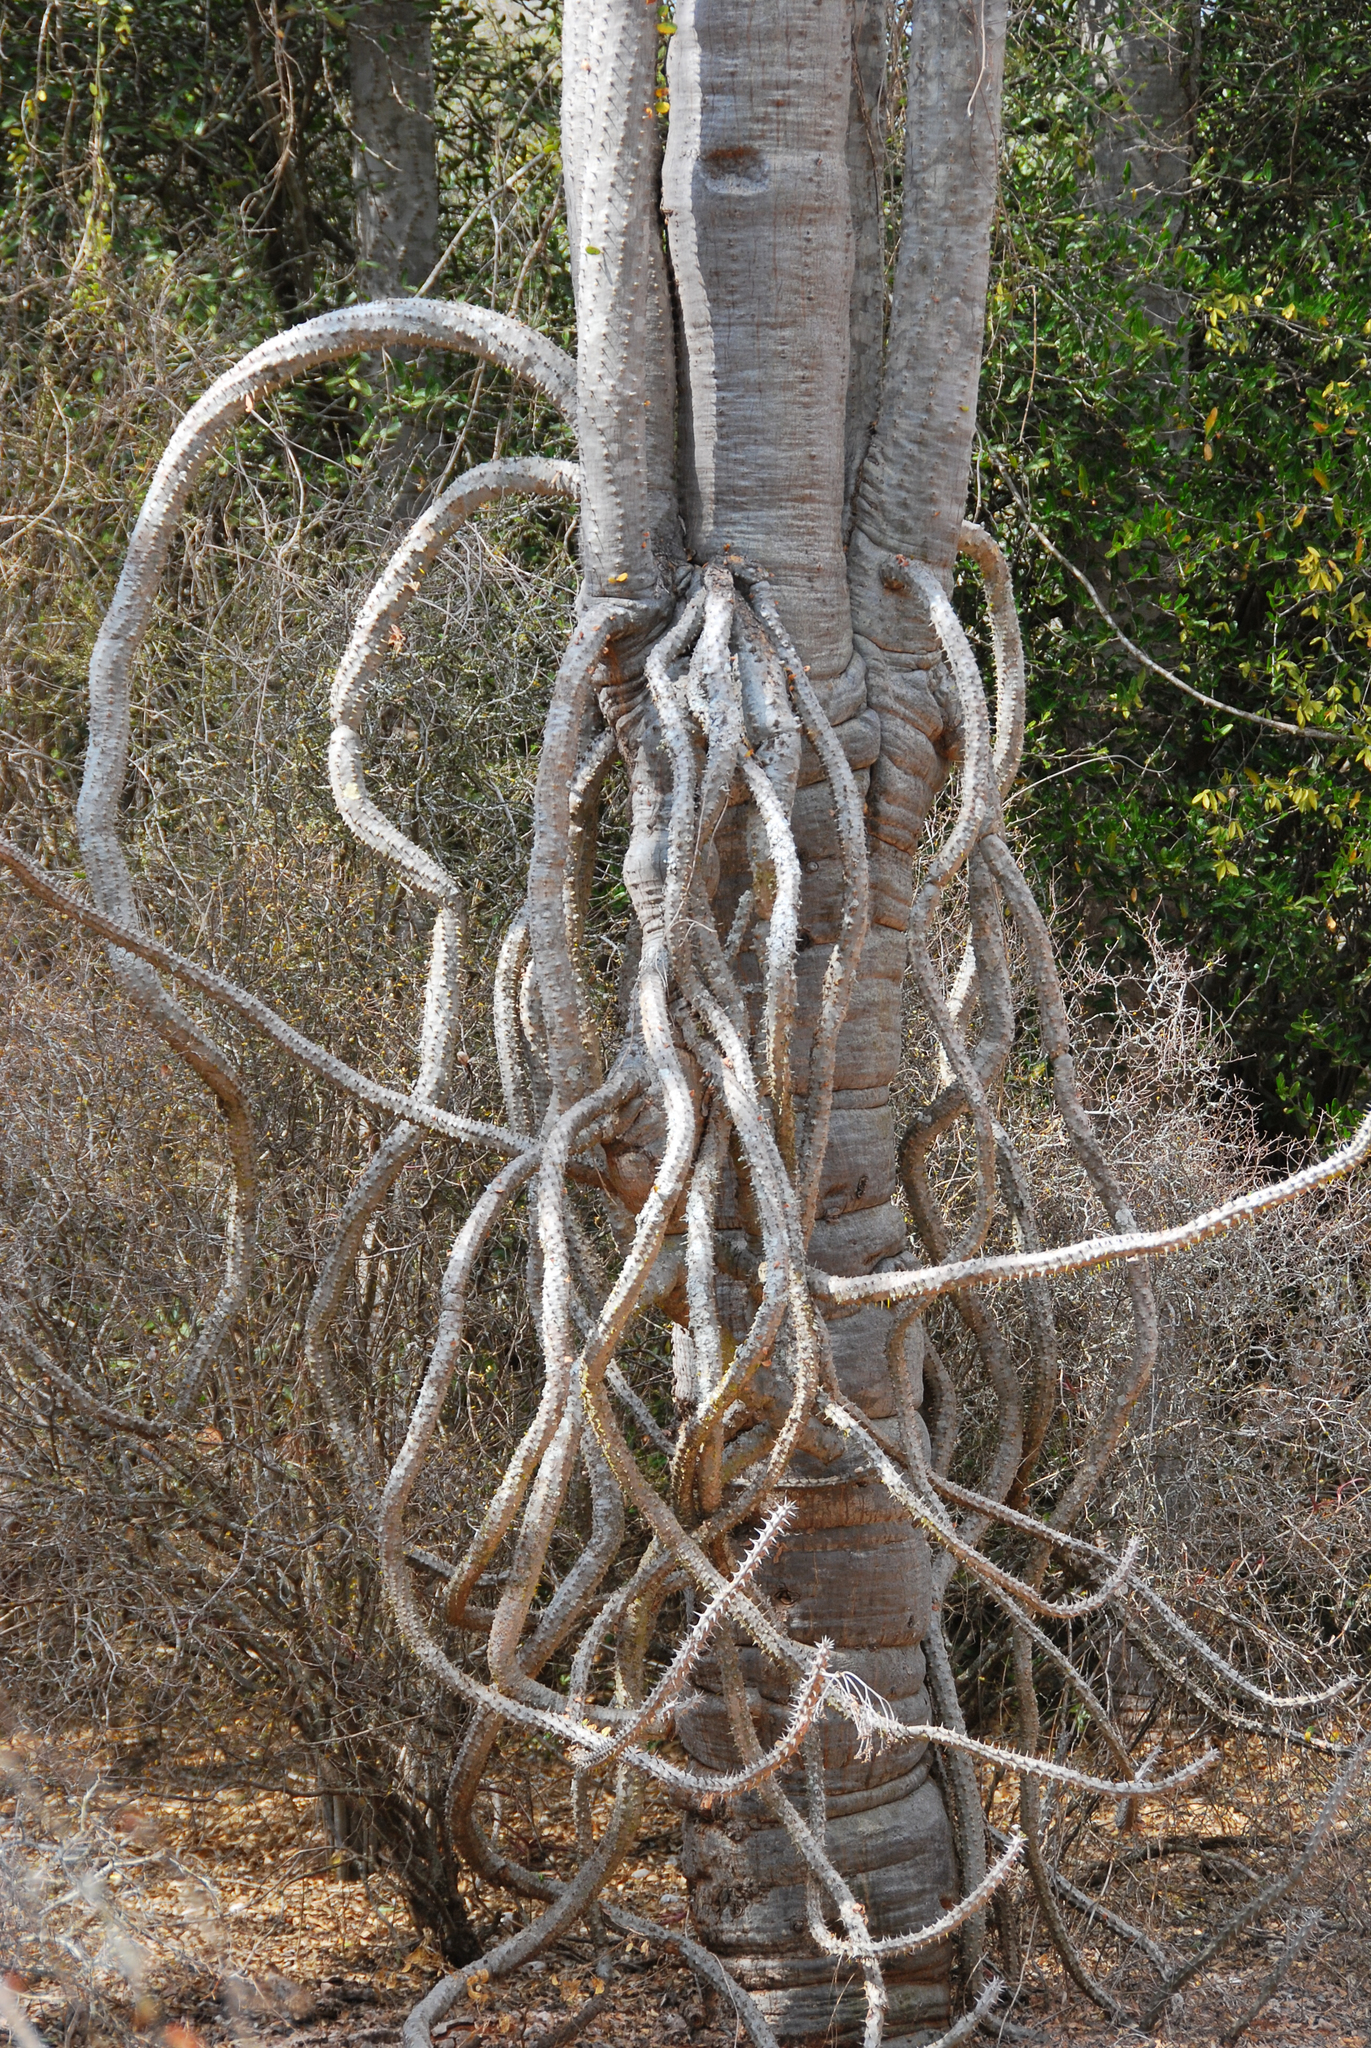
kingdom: Plantae
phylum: Tracheophyta
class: Magnoliopsida
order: Caryophyllales
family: Didiereaceae
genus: Alluaudia
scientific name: Alluaudia procera
